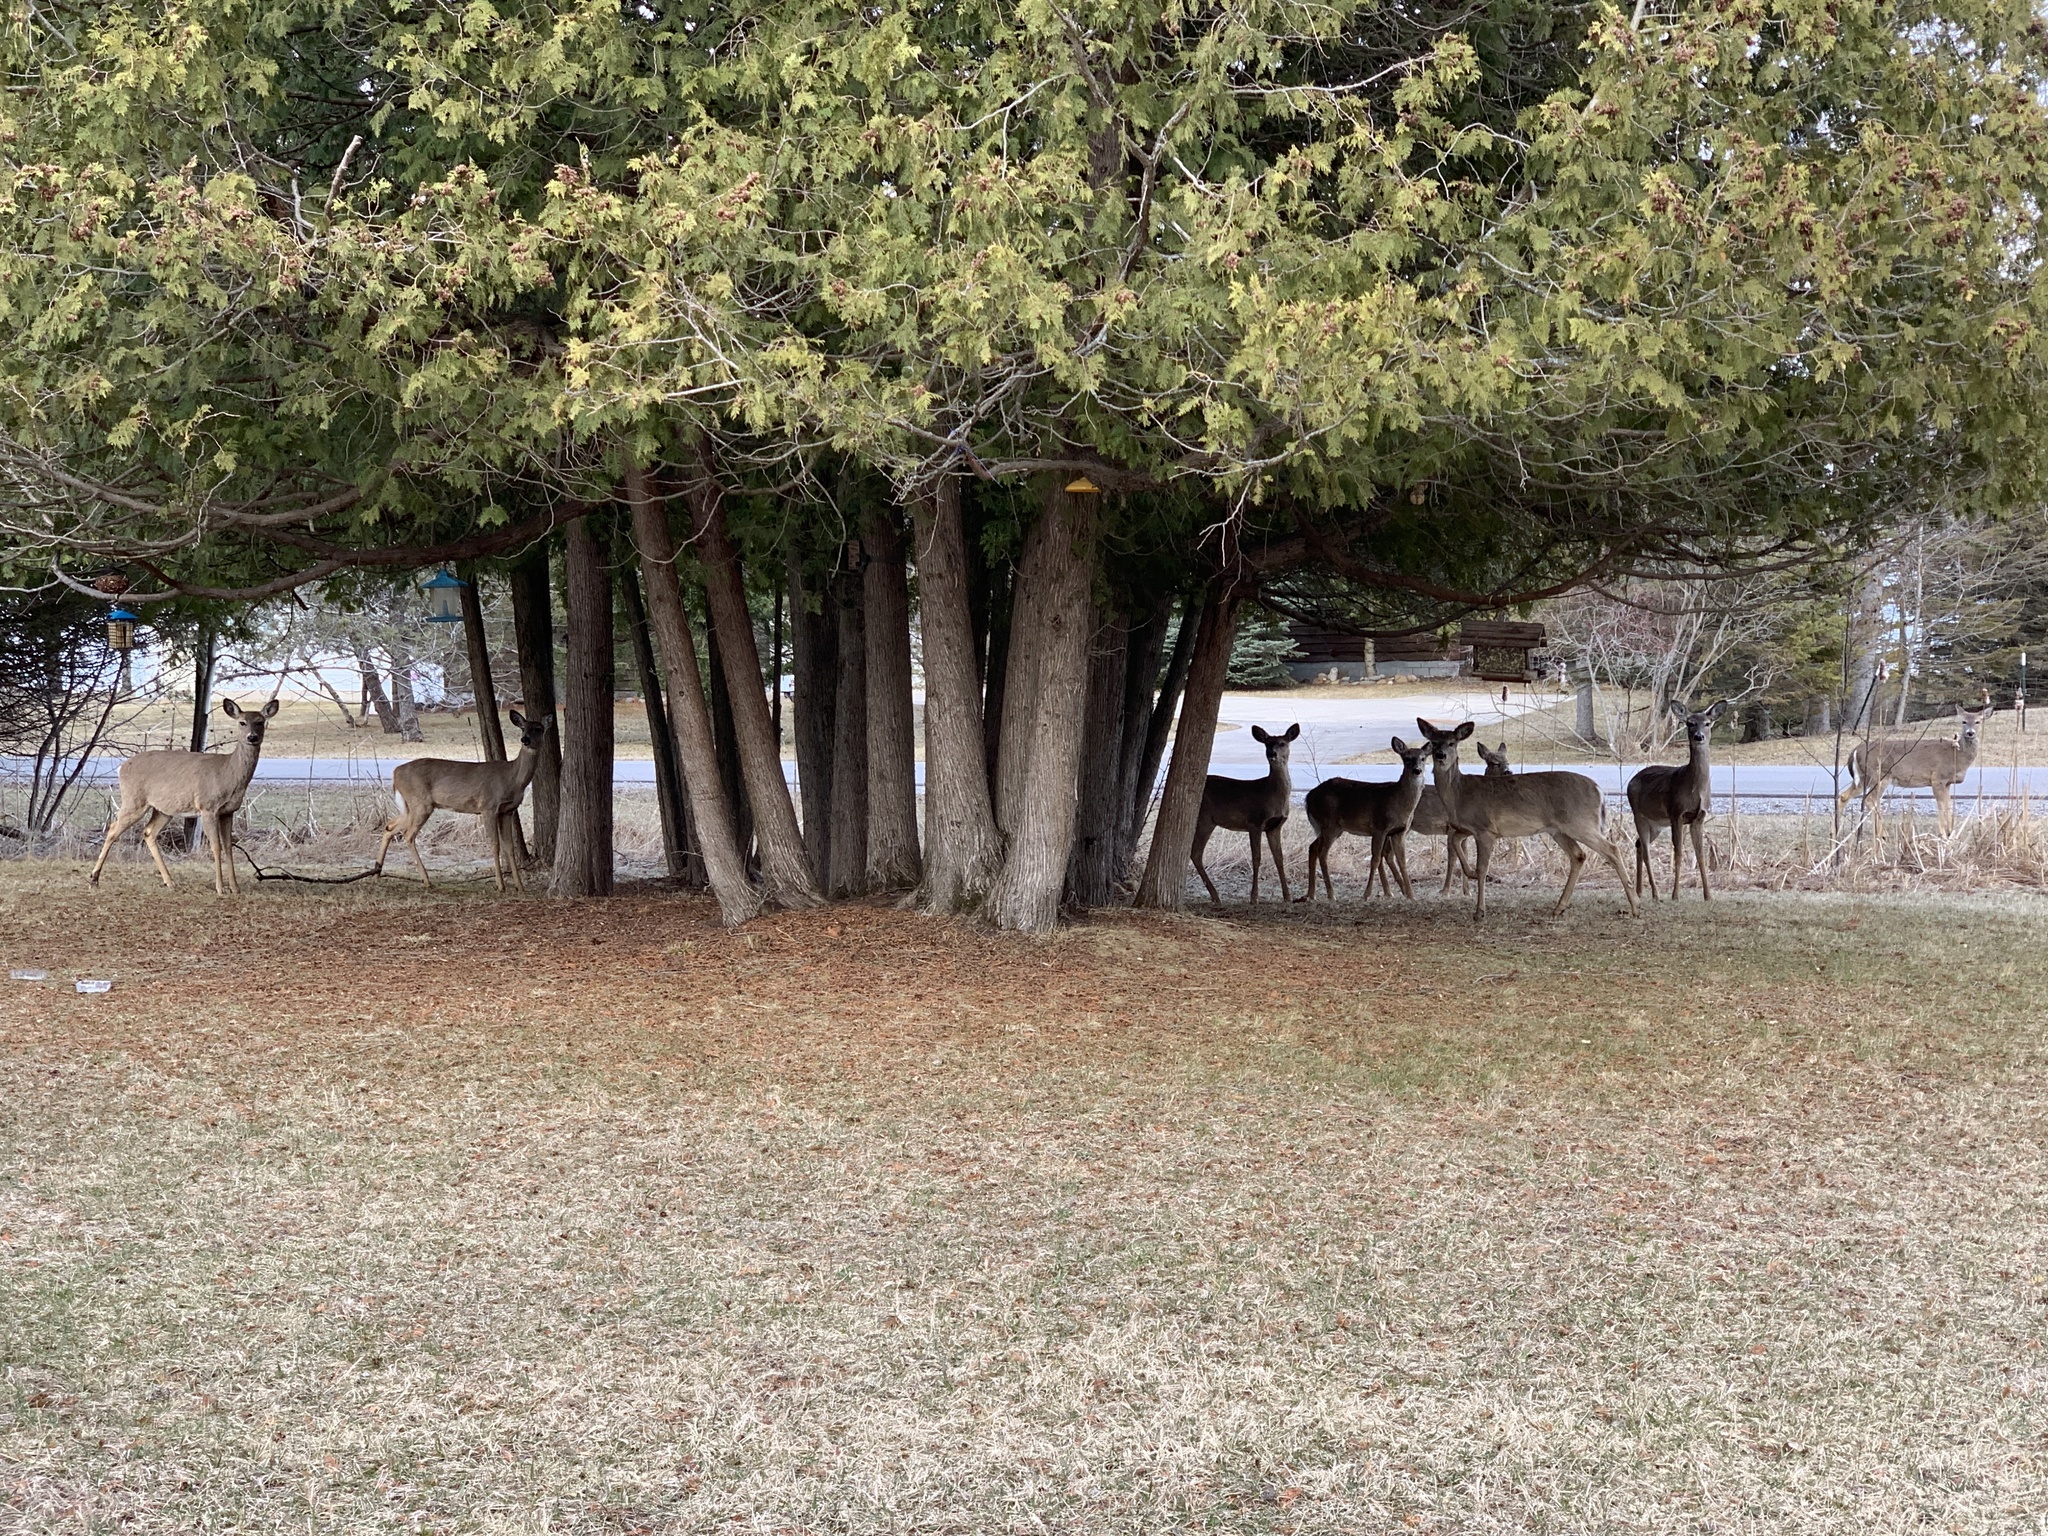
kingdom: Animalia
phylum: Chordata
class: Mammalia
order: Artiodactyla
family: Cervidae
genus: Odocoileus
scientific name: Odocoileus virginianus
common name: White-tailed deer
